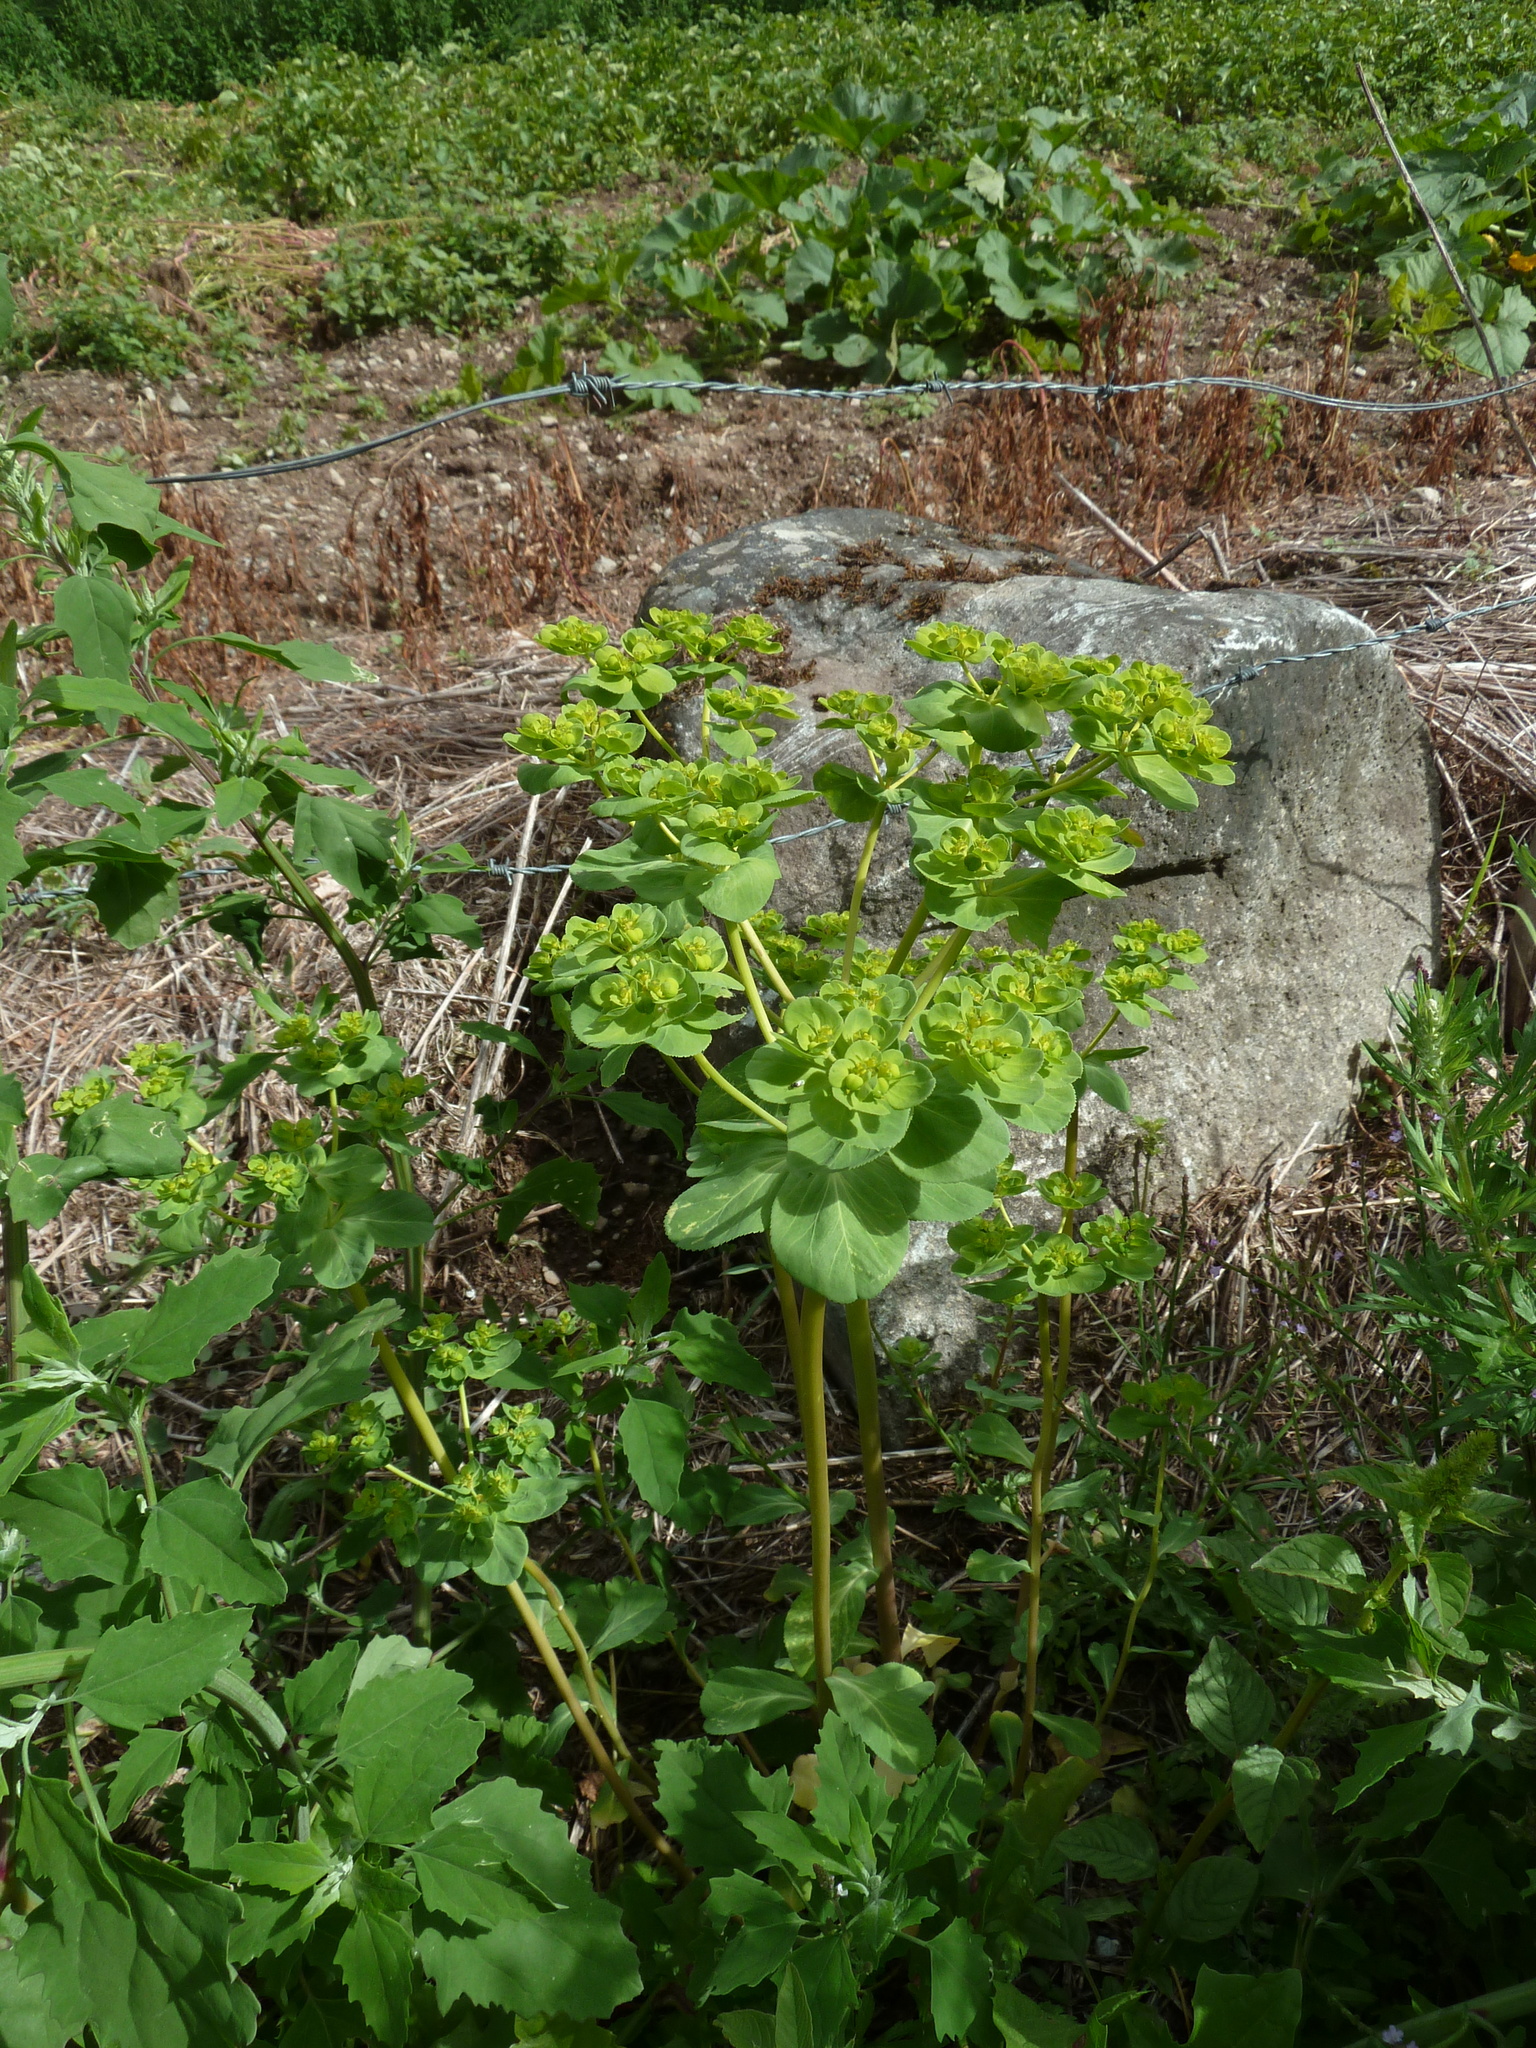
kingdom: Plantae
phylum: Tracheophyta
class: Magnoliopsida
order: Malpighiales
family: Euphorbiaceae
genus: Euphorbia
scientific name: Euphorbia helioscopia
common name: Sun spurge
